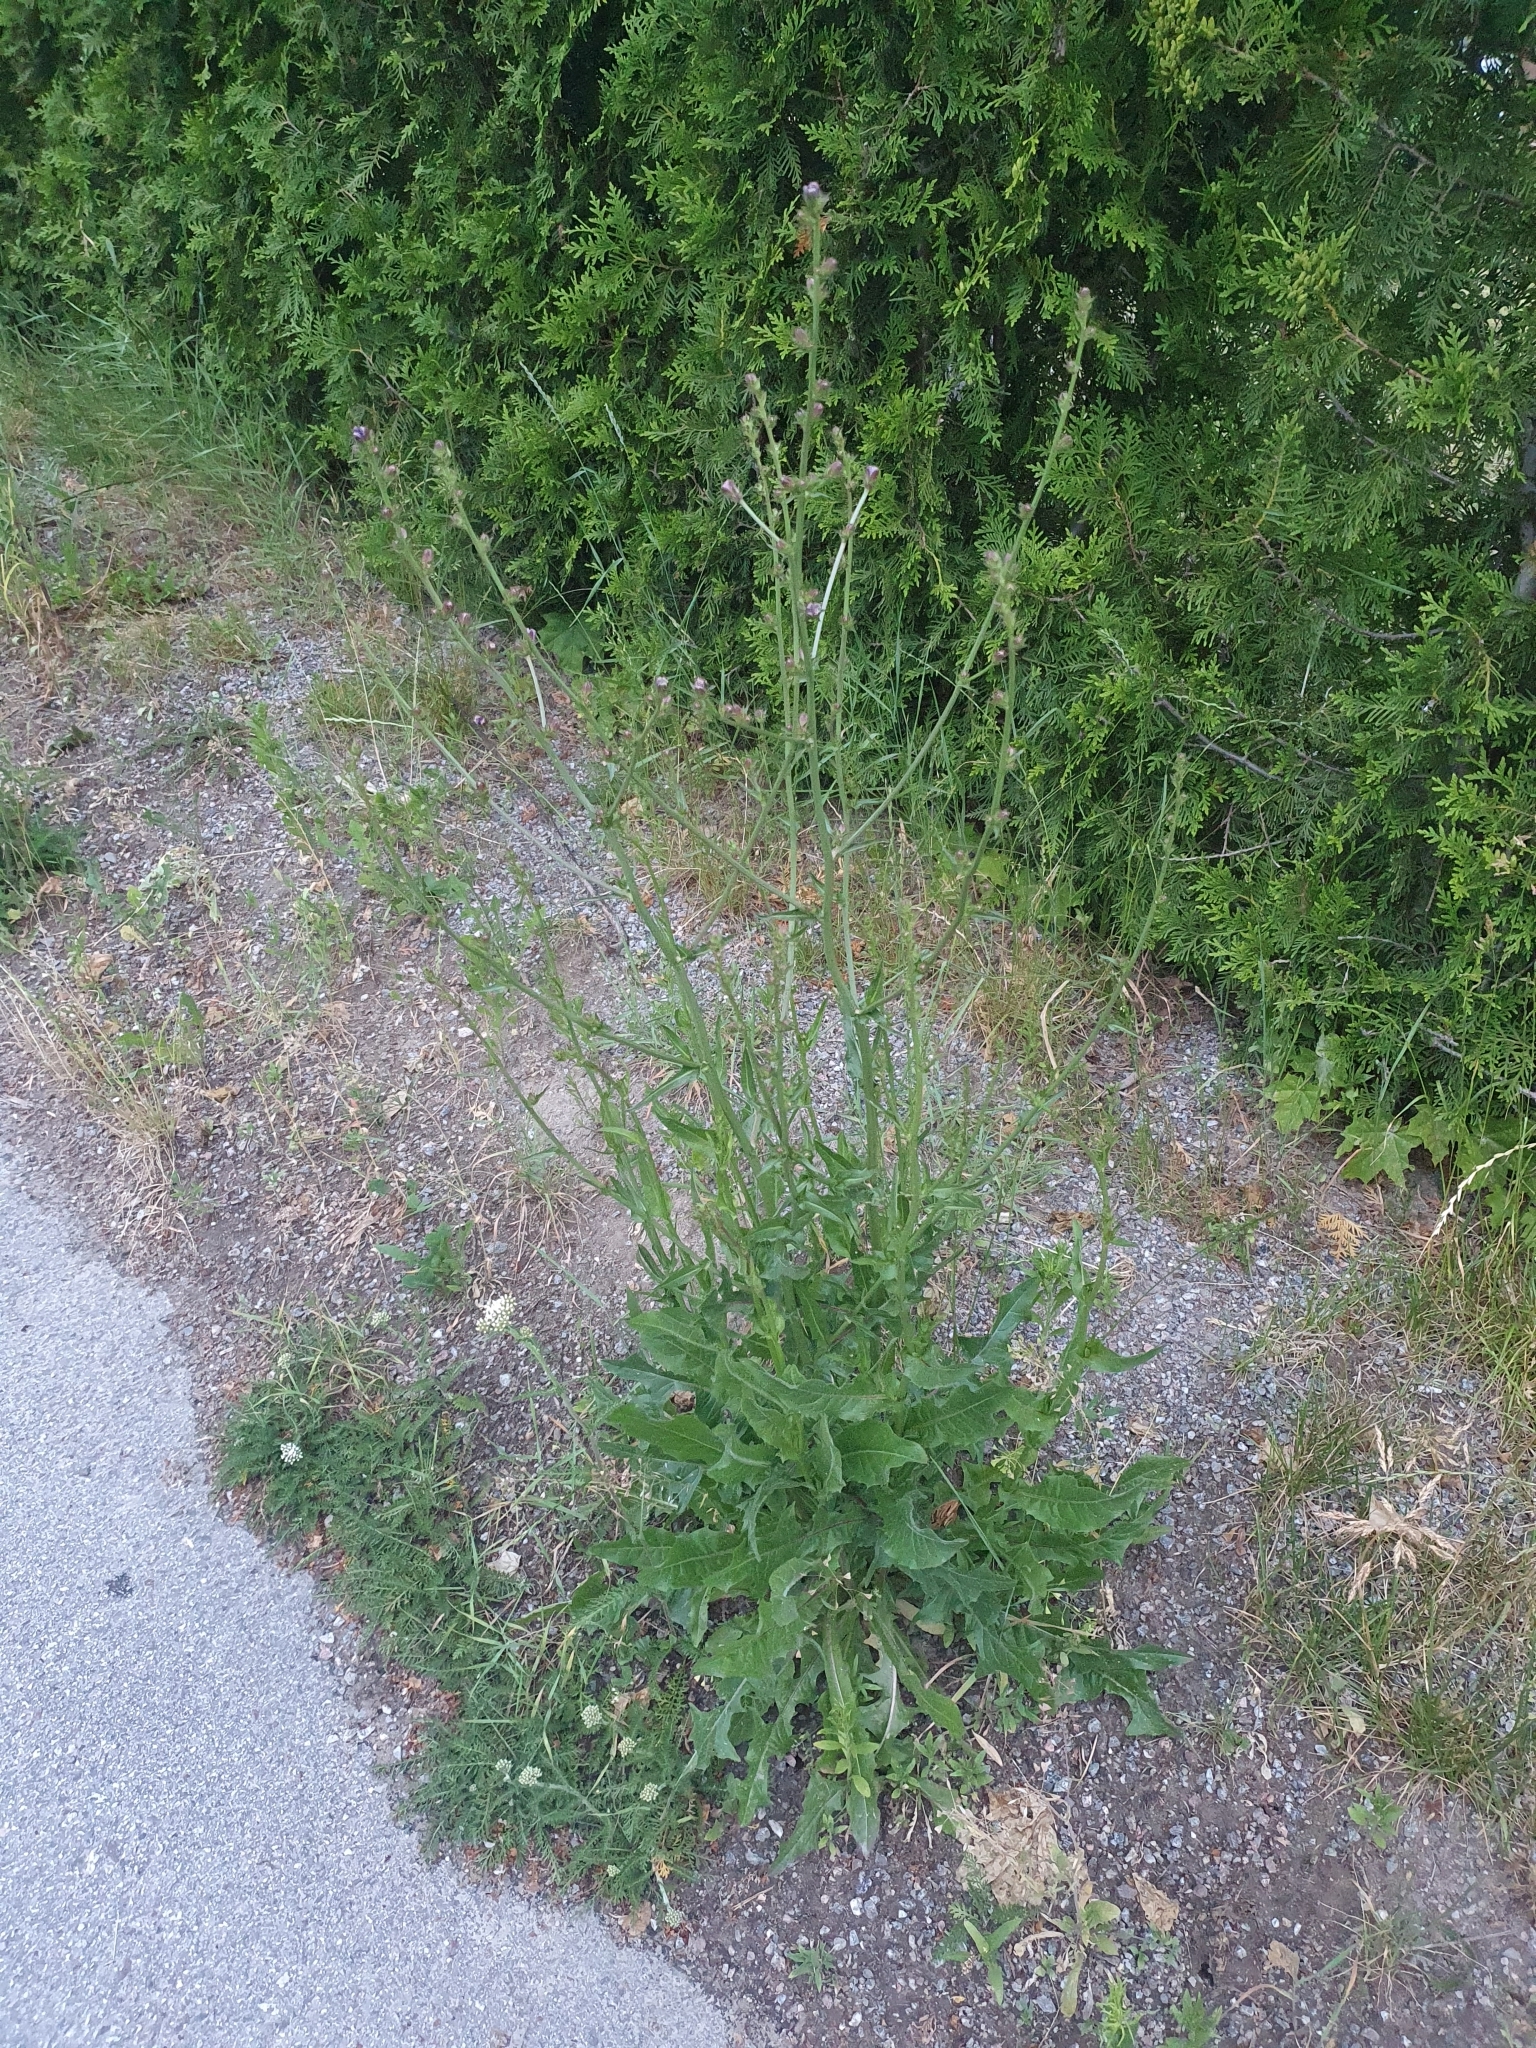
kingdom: Plantae
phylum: Tracheophyta
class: Magnoliopsida
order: Asterales
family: Asteraceae
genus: Cichorium
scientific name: Cichorium intybus
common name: Chicory
